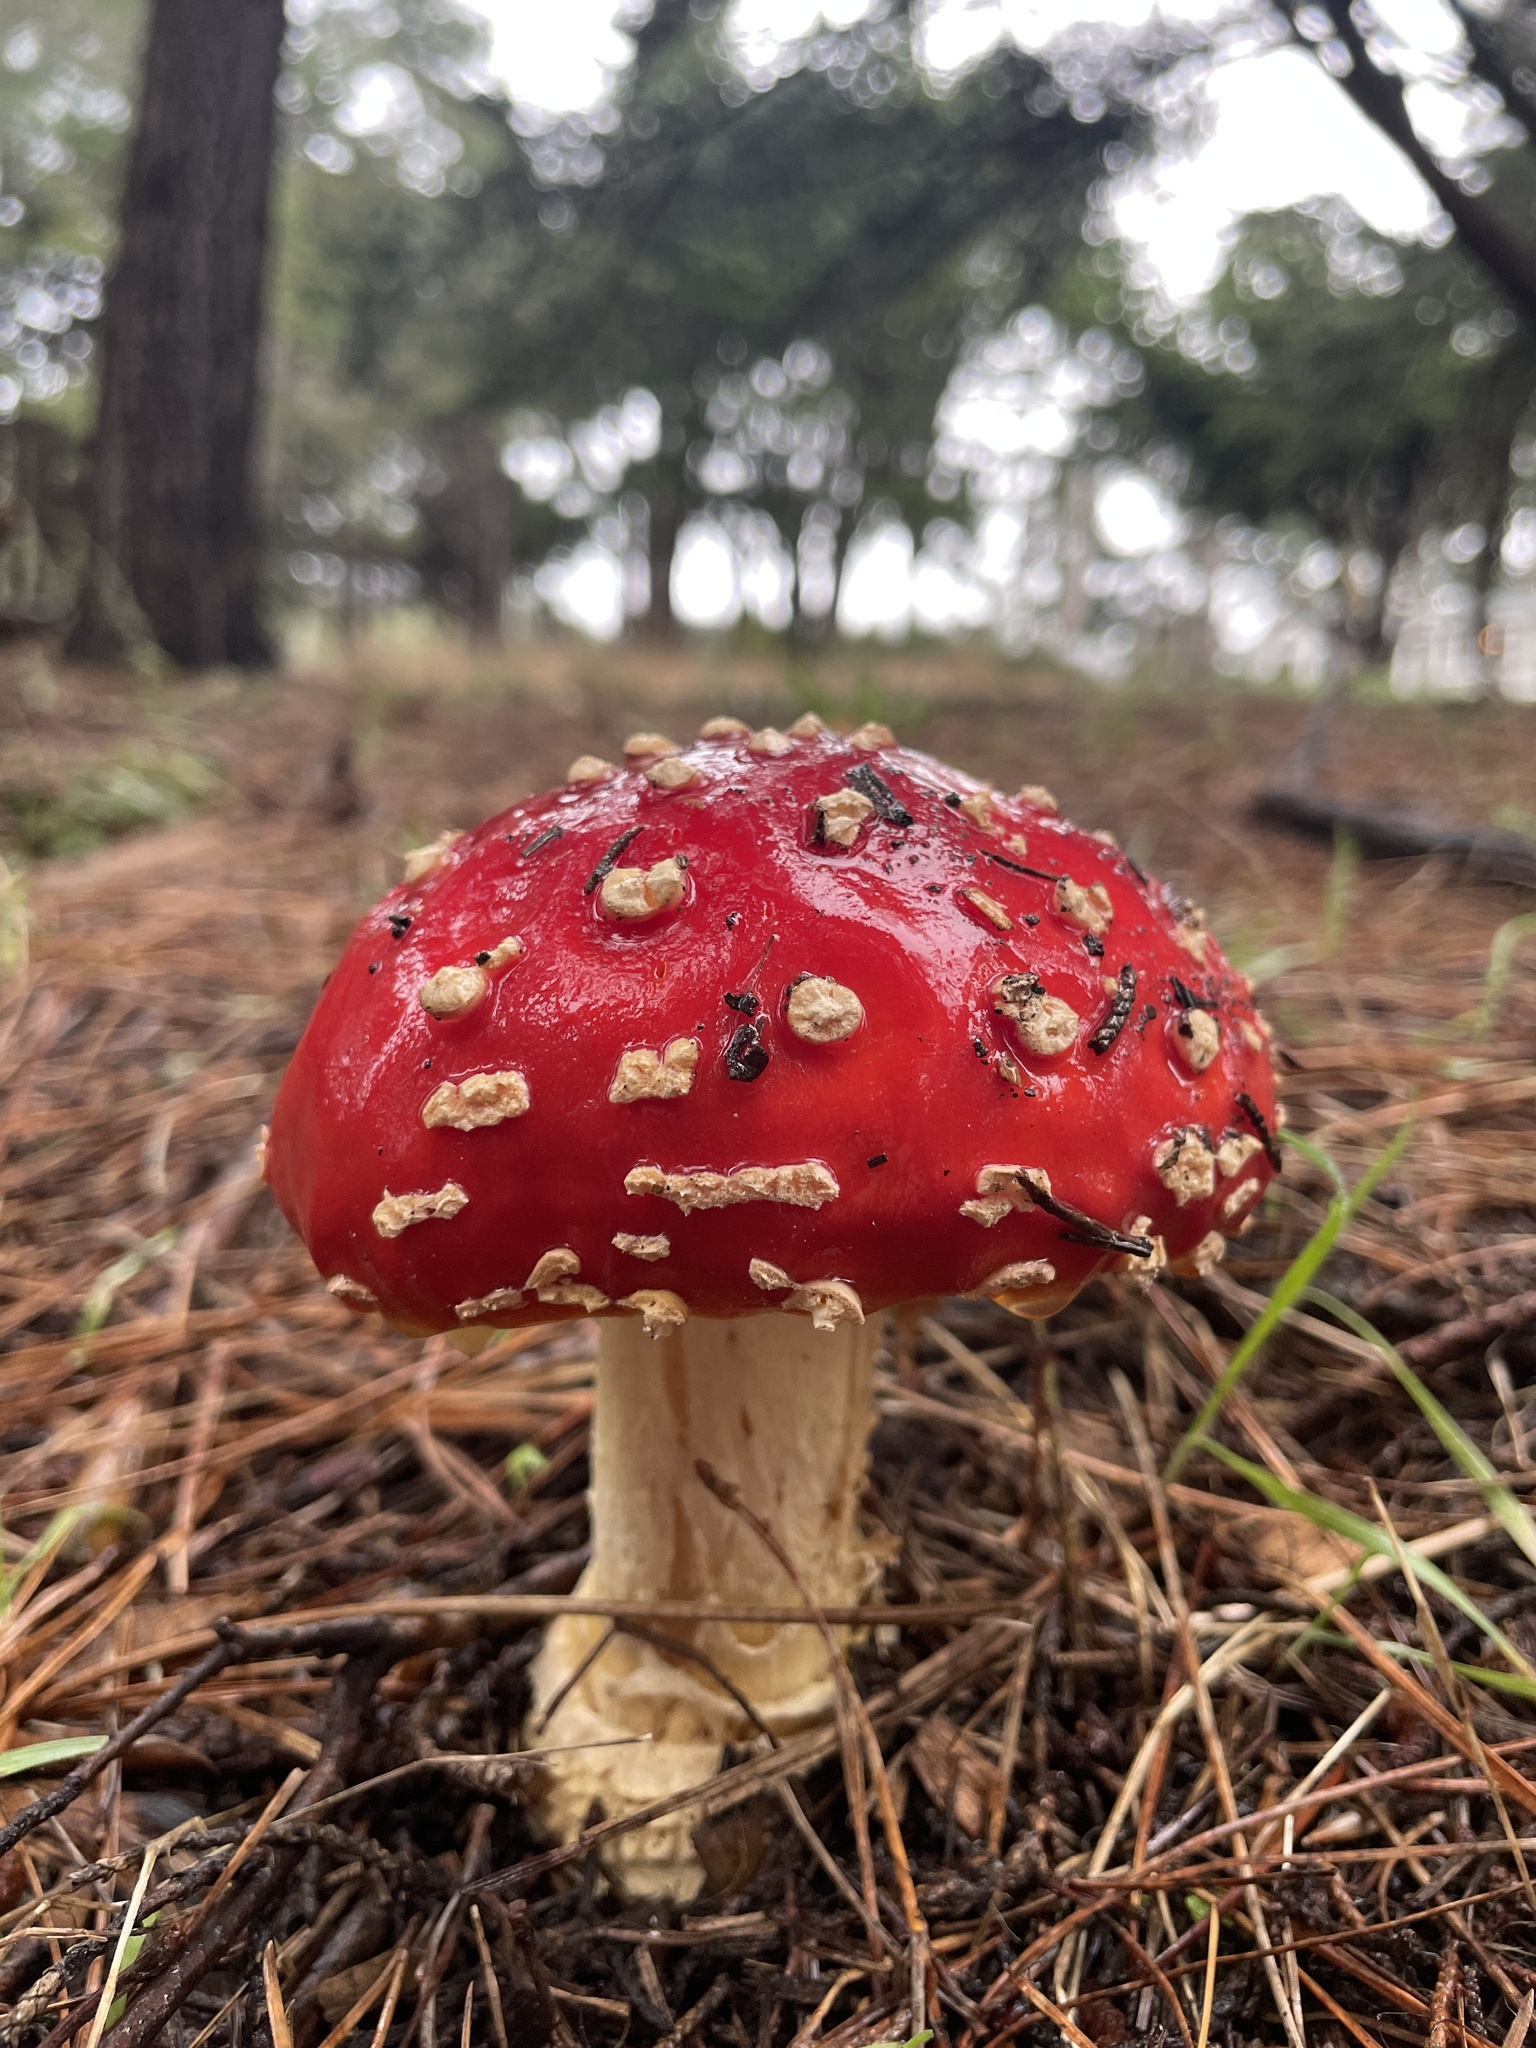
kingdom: Fungi
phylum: Basidiomycota
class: Agaricomycetes
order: Agaricales
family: Amanitaceae
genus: Amanita
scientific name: Amanita muscaria
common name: Fly agaric
